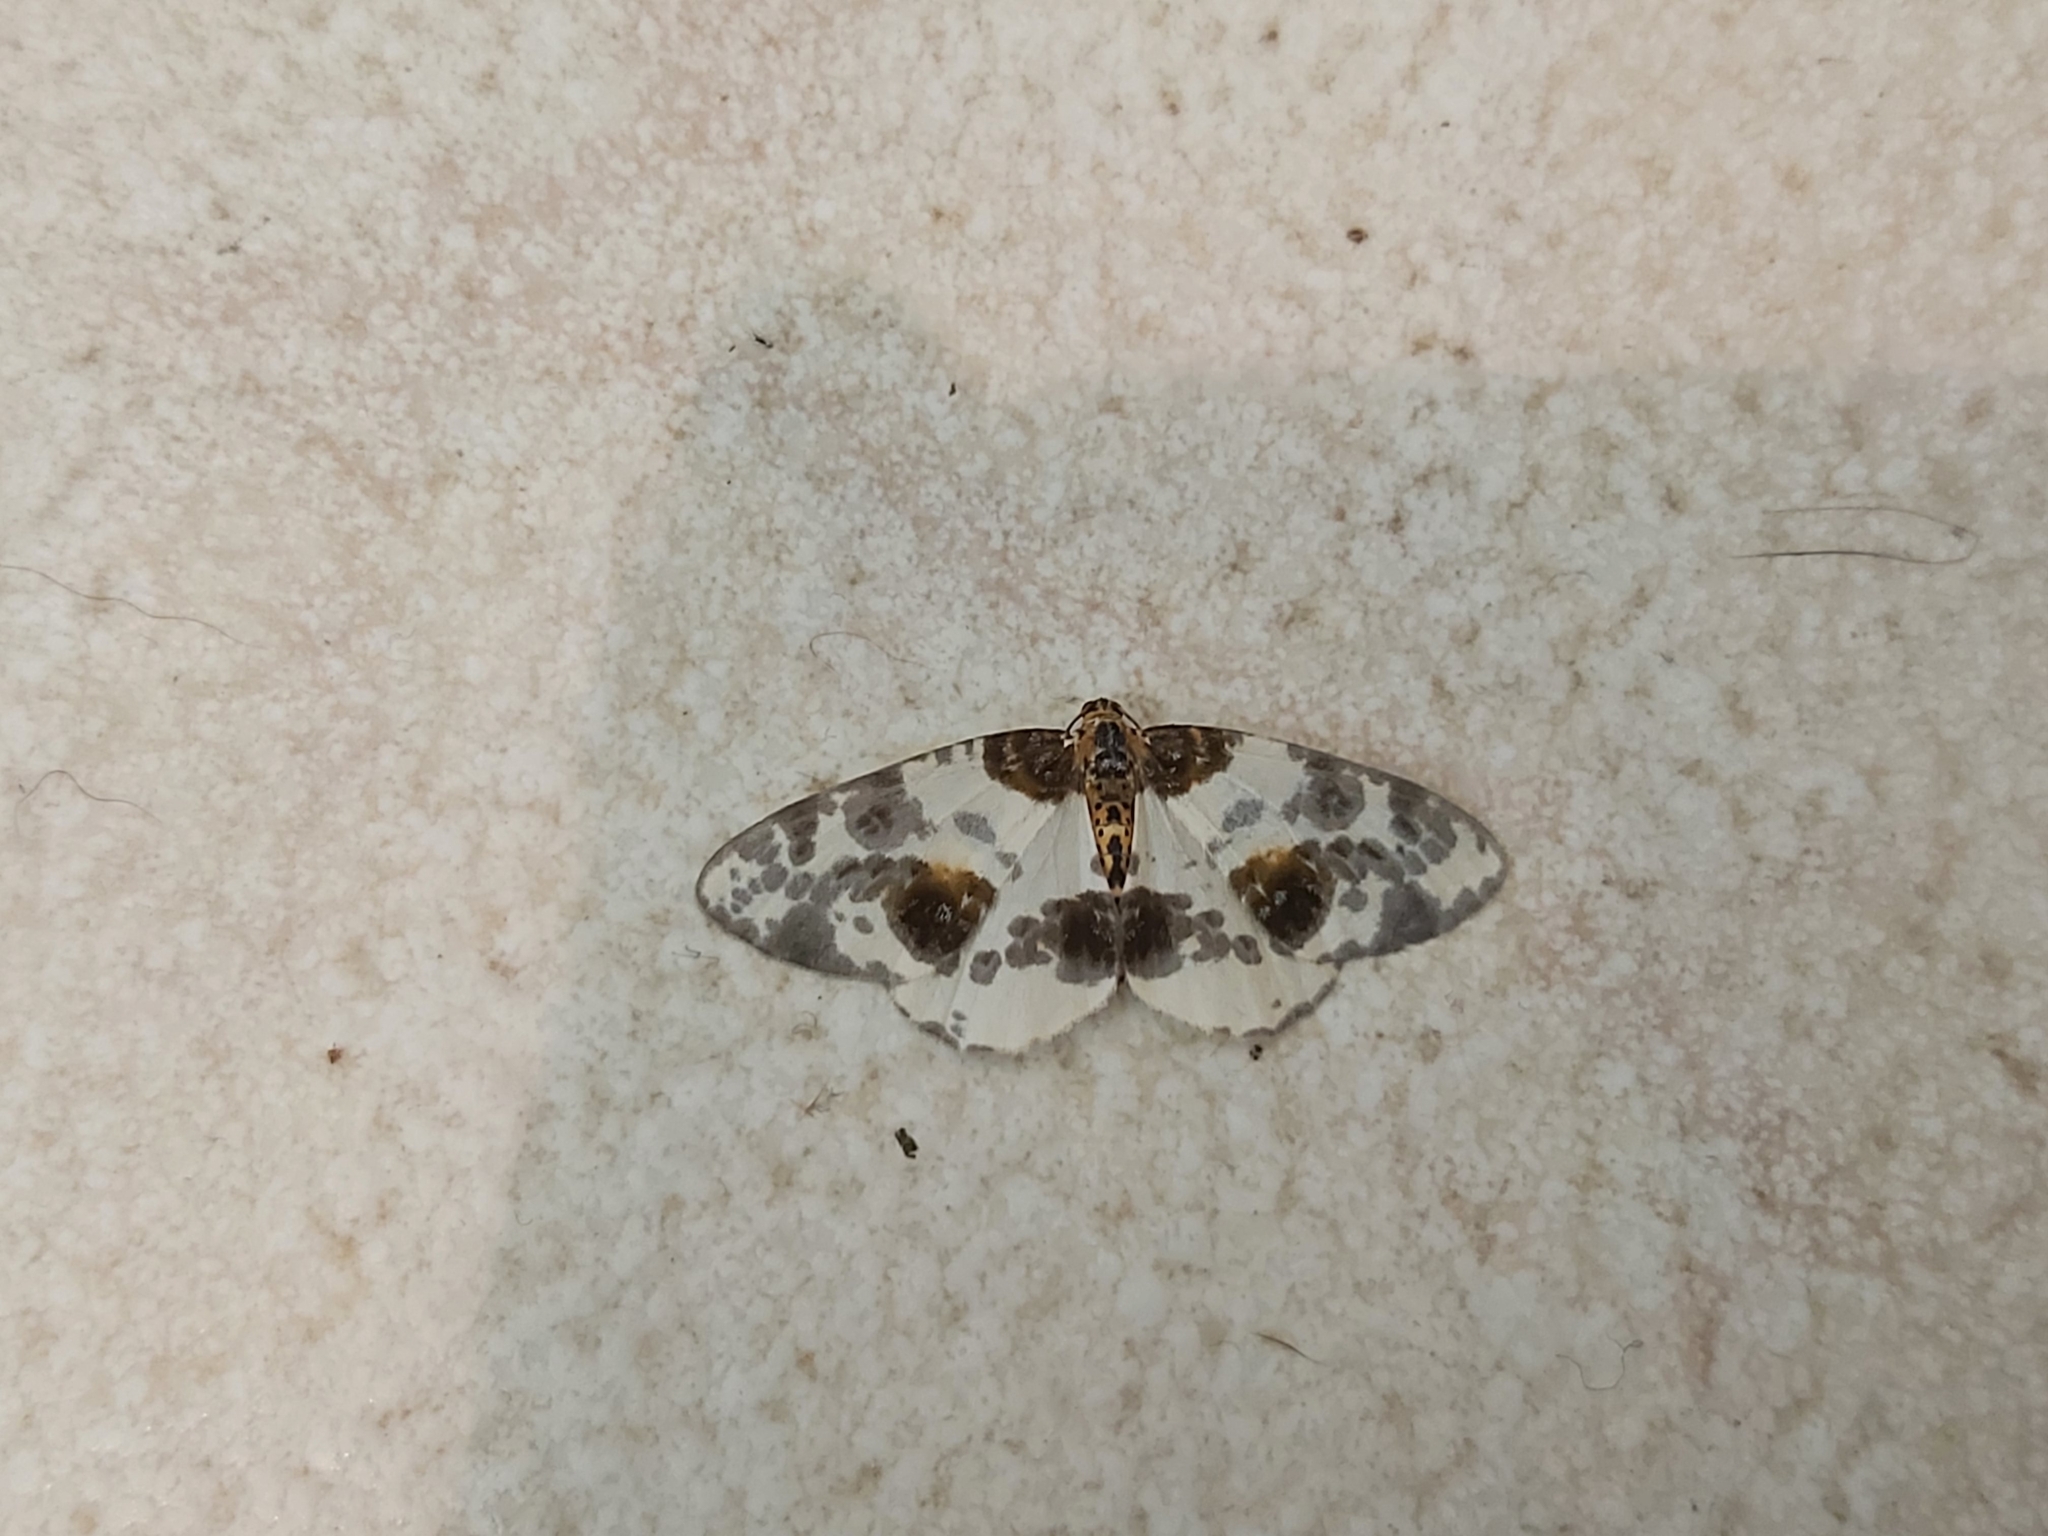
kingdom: Animalia
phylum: Arthropoda
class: Insecta
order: Lepidoptera
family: Geometridae
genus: Abraxas
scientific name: Abraxas sylvata
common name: Clouded magpie
